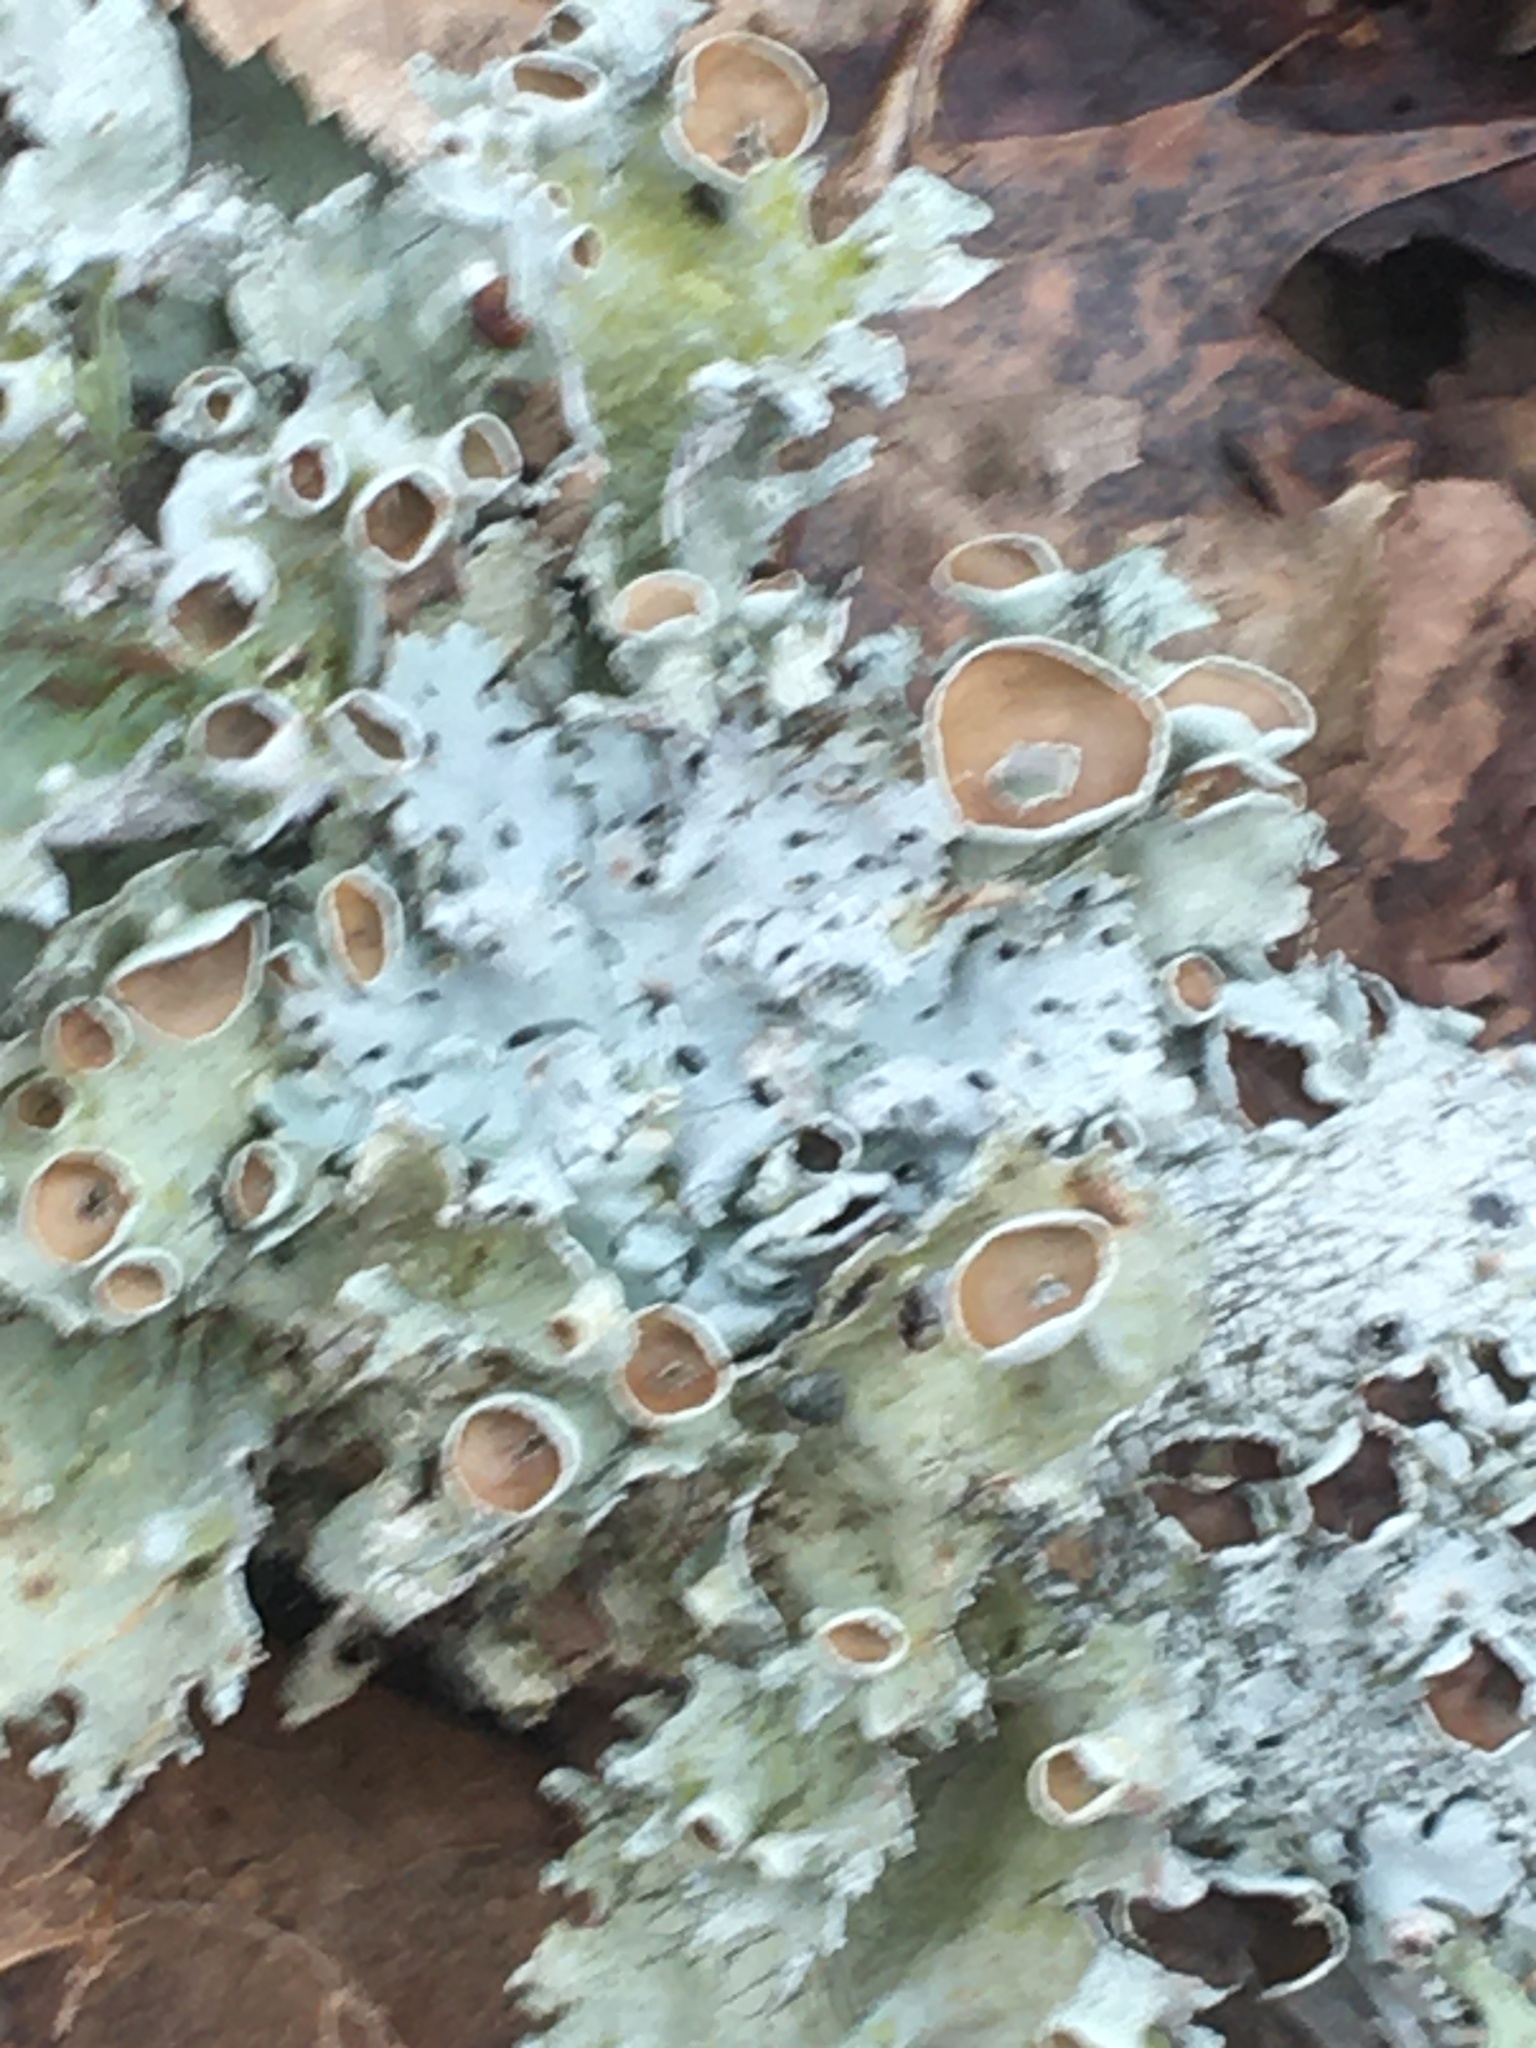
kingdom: Fungi
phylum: Ascomycota
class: Lecanoromycetes
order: Lecanorales
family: Parmeliaceae
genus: Parmotrema
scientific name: Parmotrema perforatum
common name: Perforated ruffle lichen
